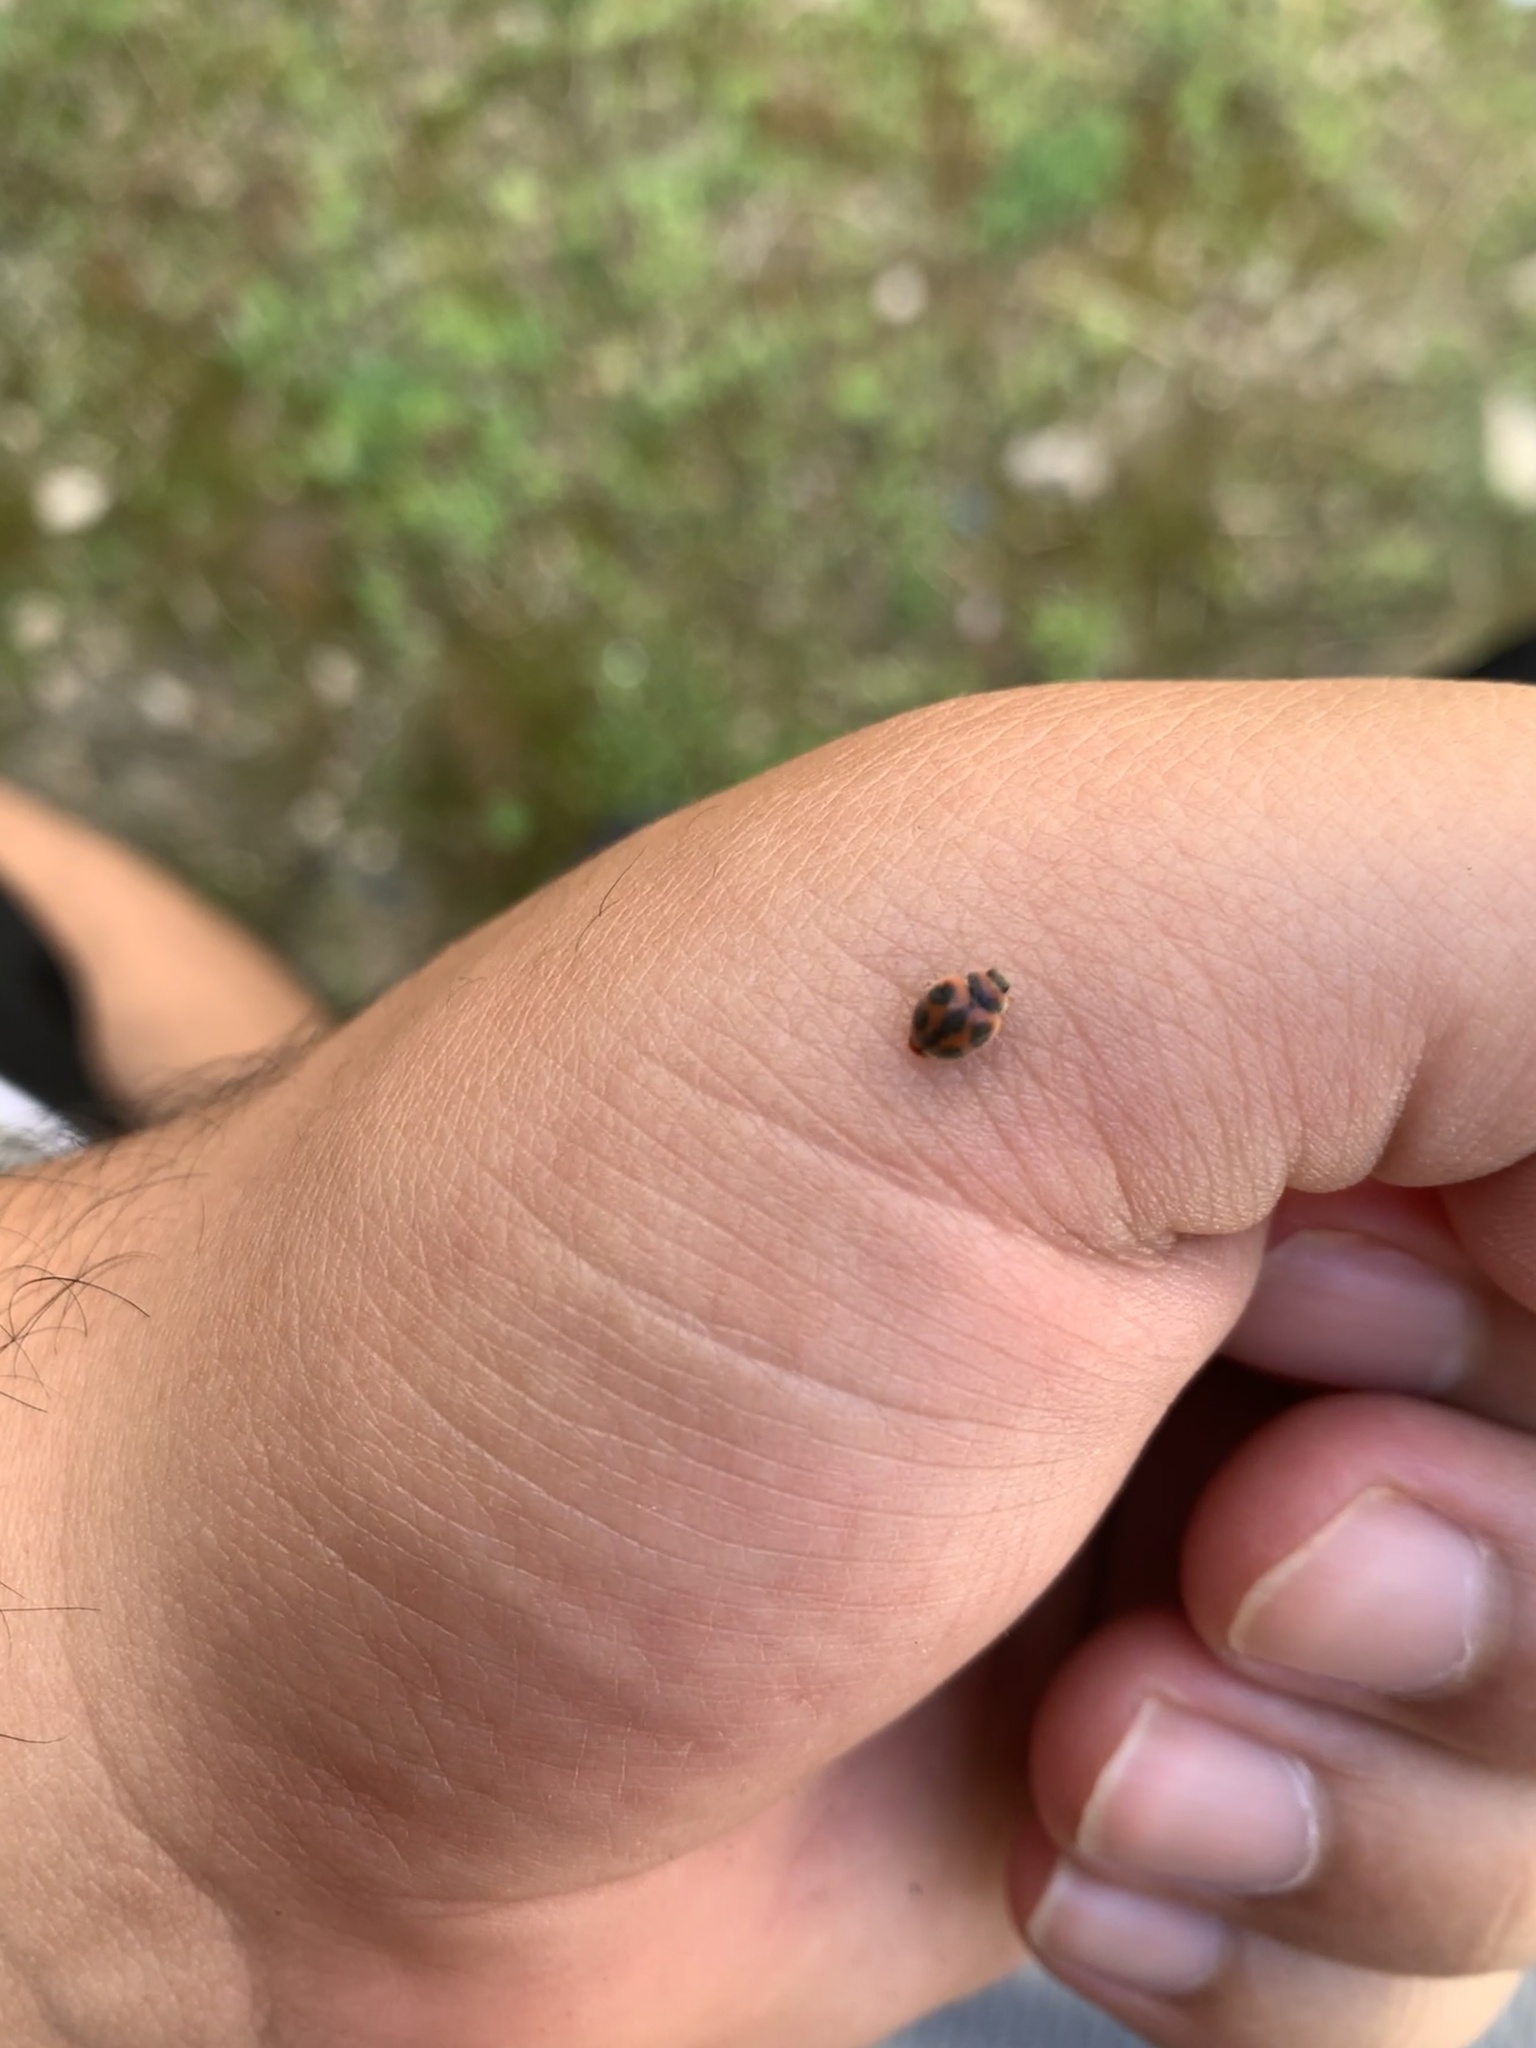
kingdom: Animalia
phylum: Arthropoda
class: Insecta
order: Coleoptera
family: Coccinellidae
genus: Novius
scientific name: Novius cardinalis
